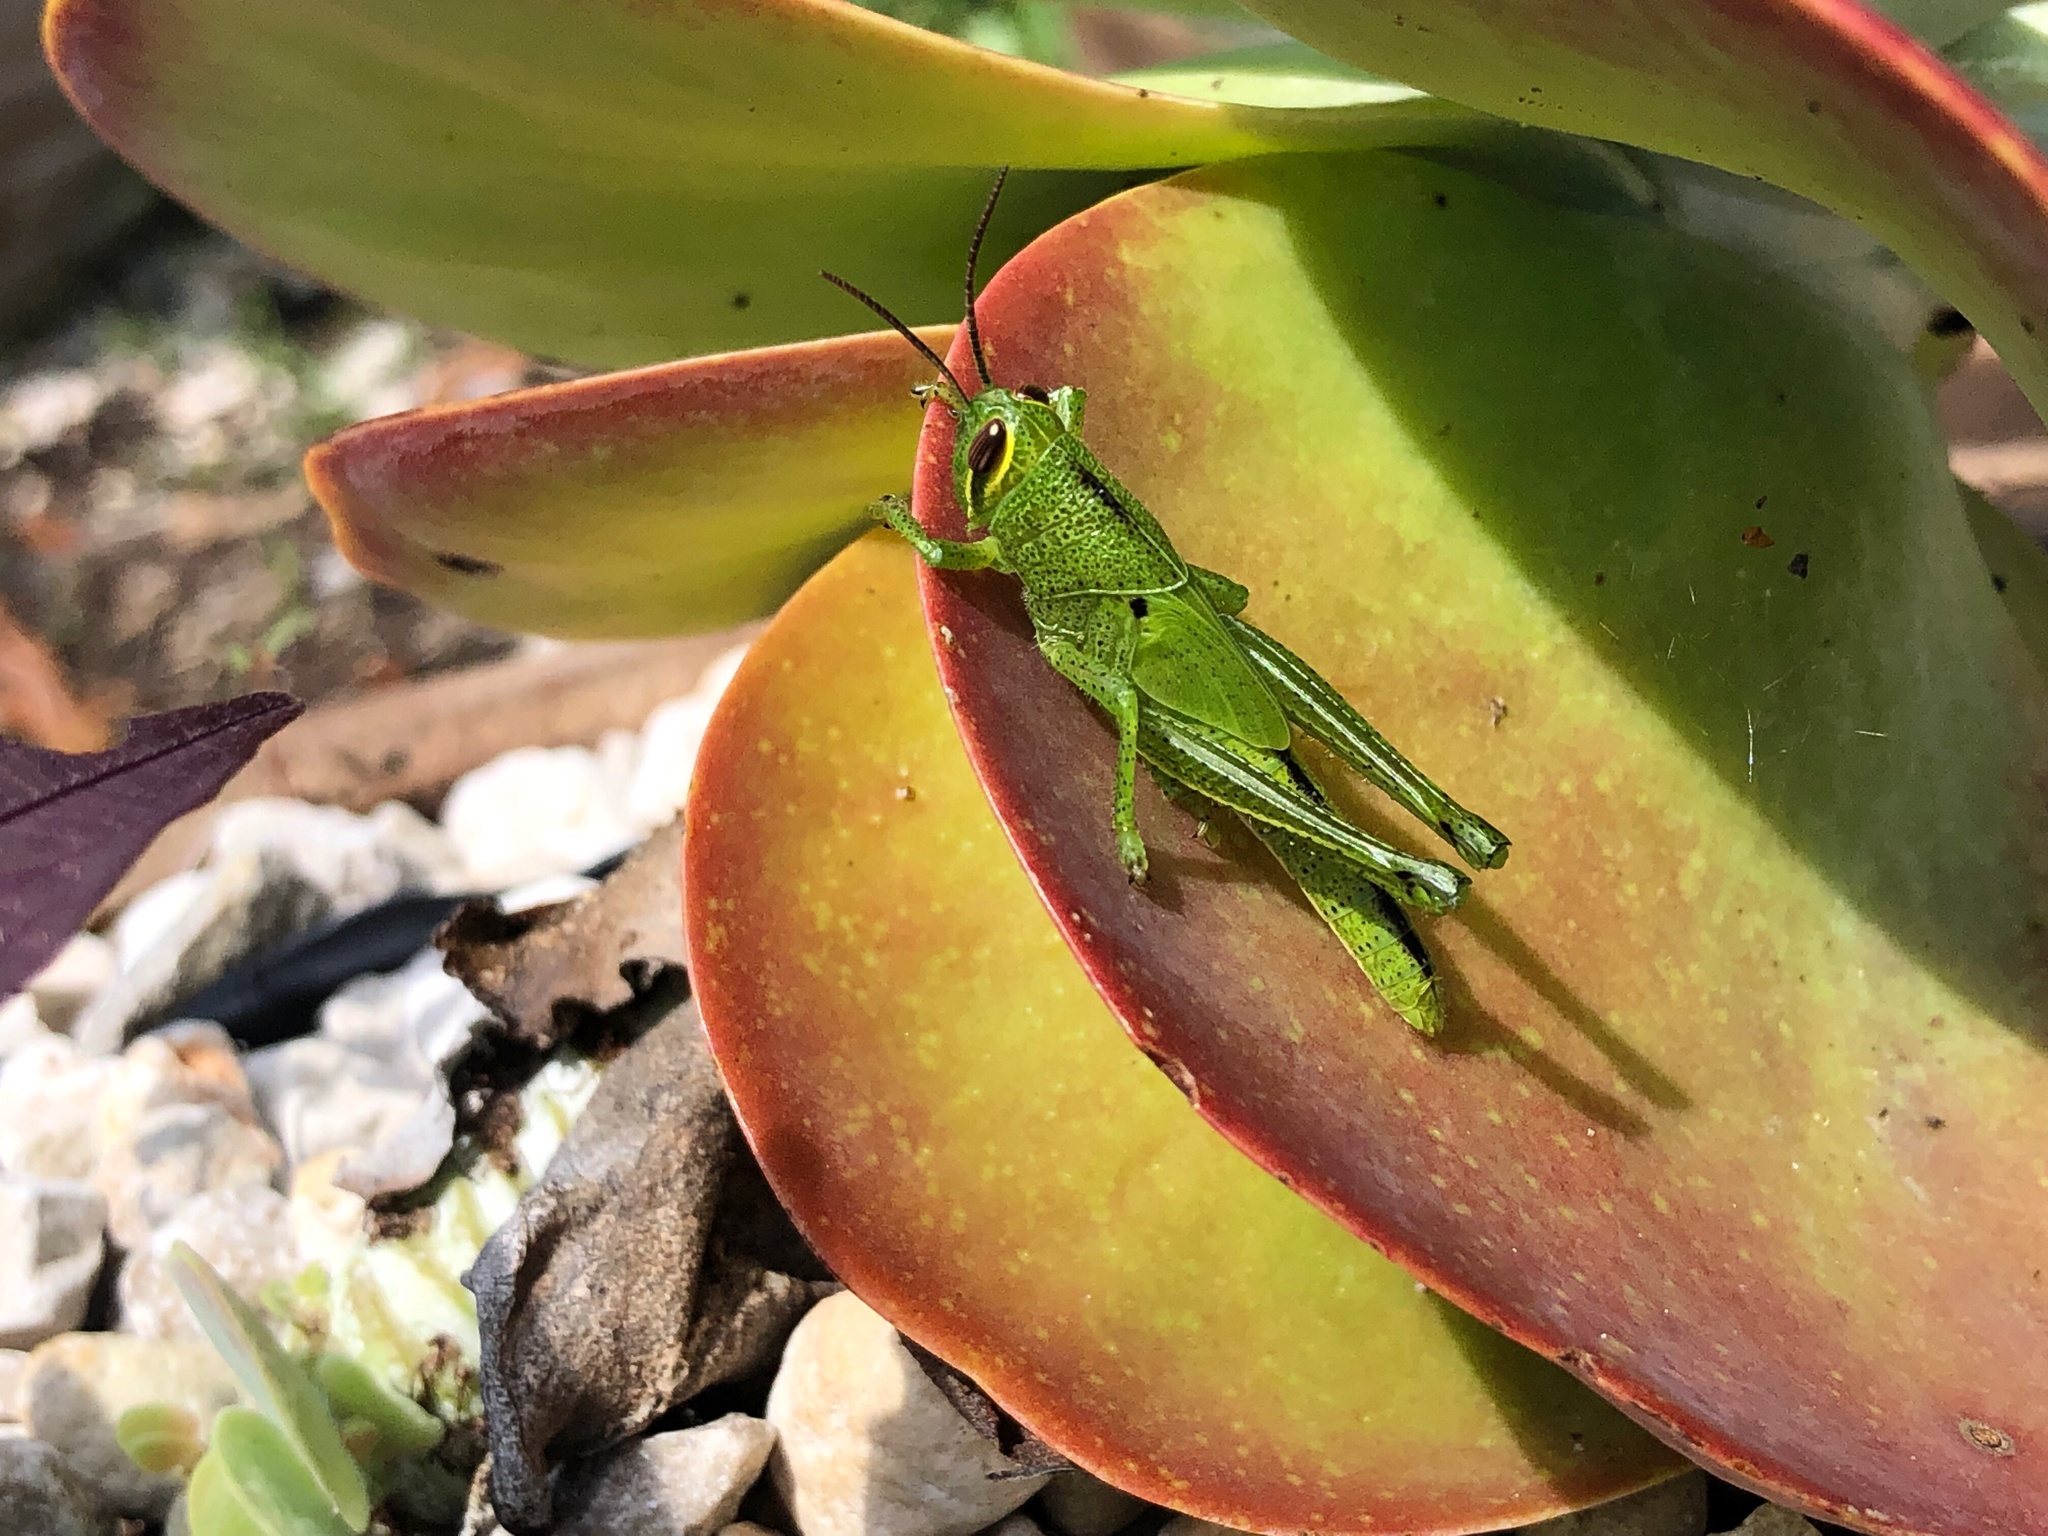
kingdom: Animalia
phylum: Arthropoda
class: Insecta
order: Orthoptera
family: Acrididae
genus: Schistocerca
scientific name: Schistocerca americana
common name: American bird locust
